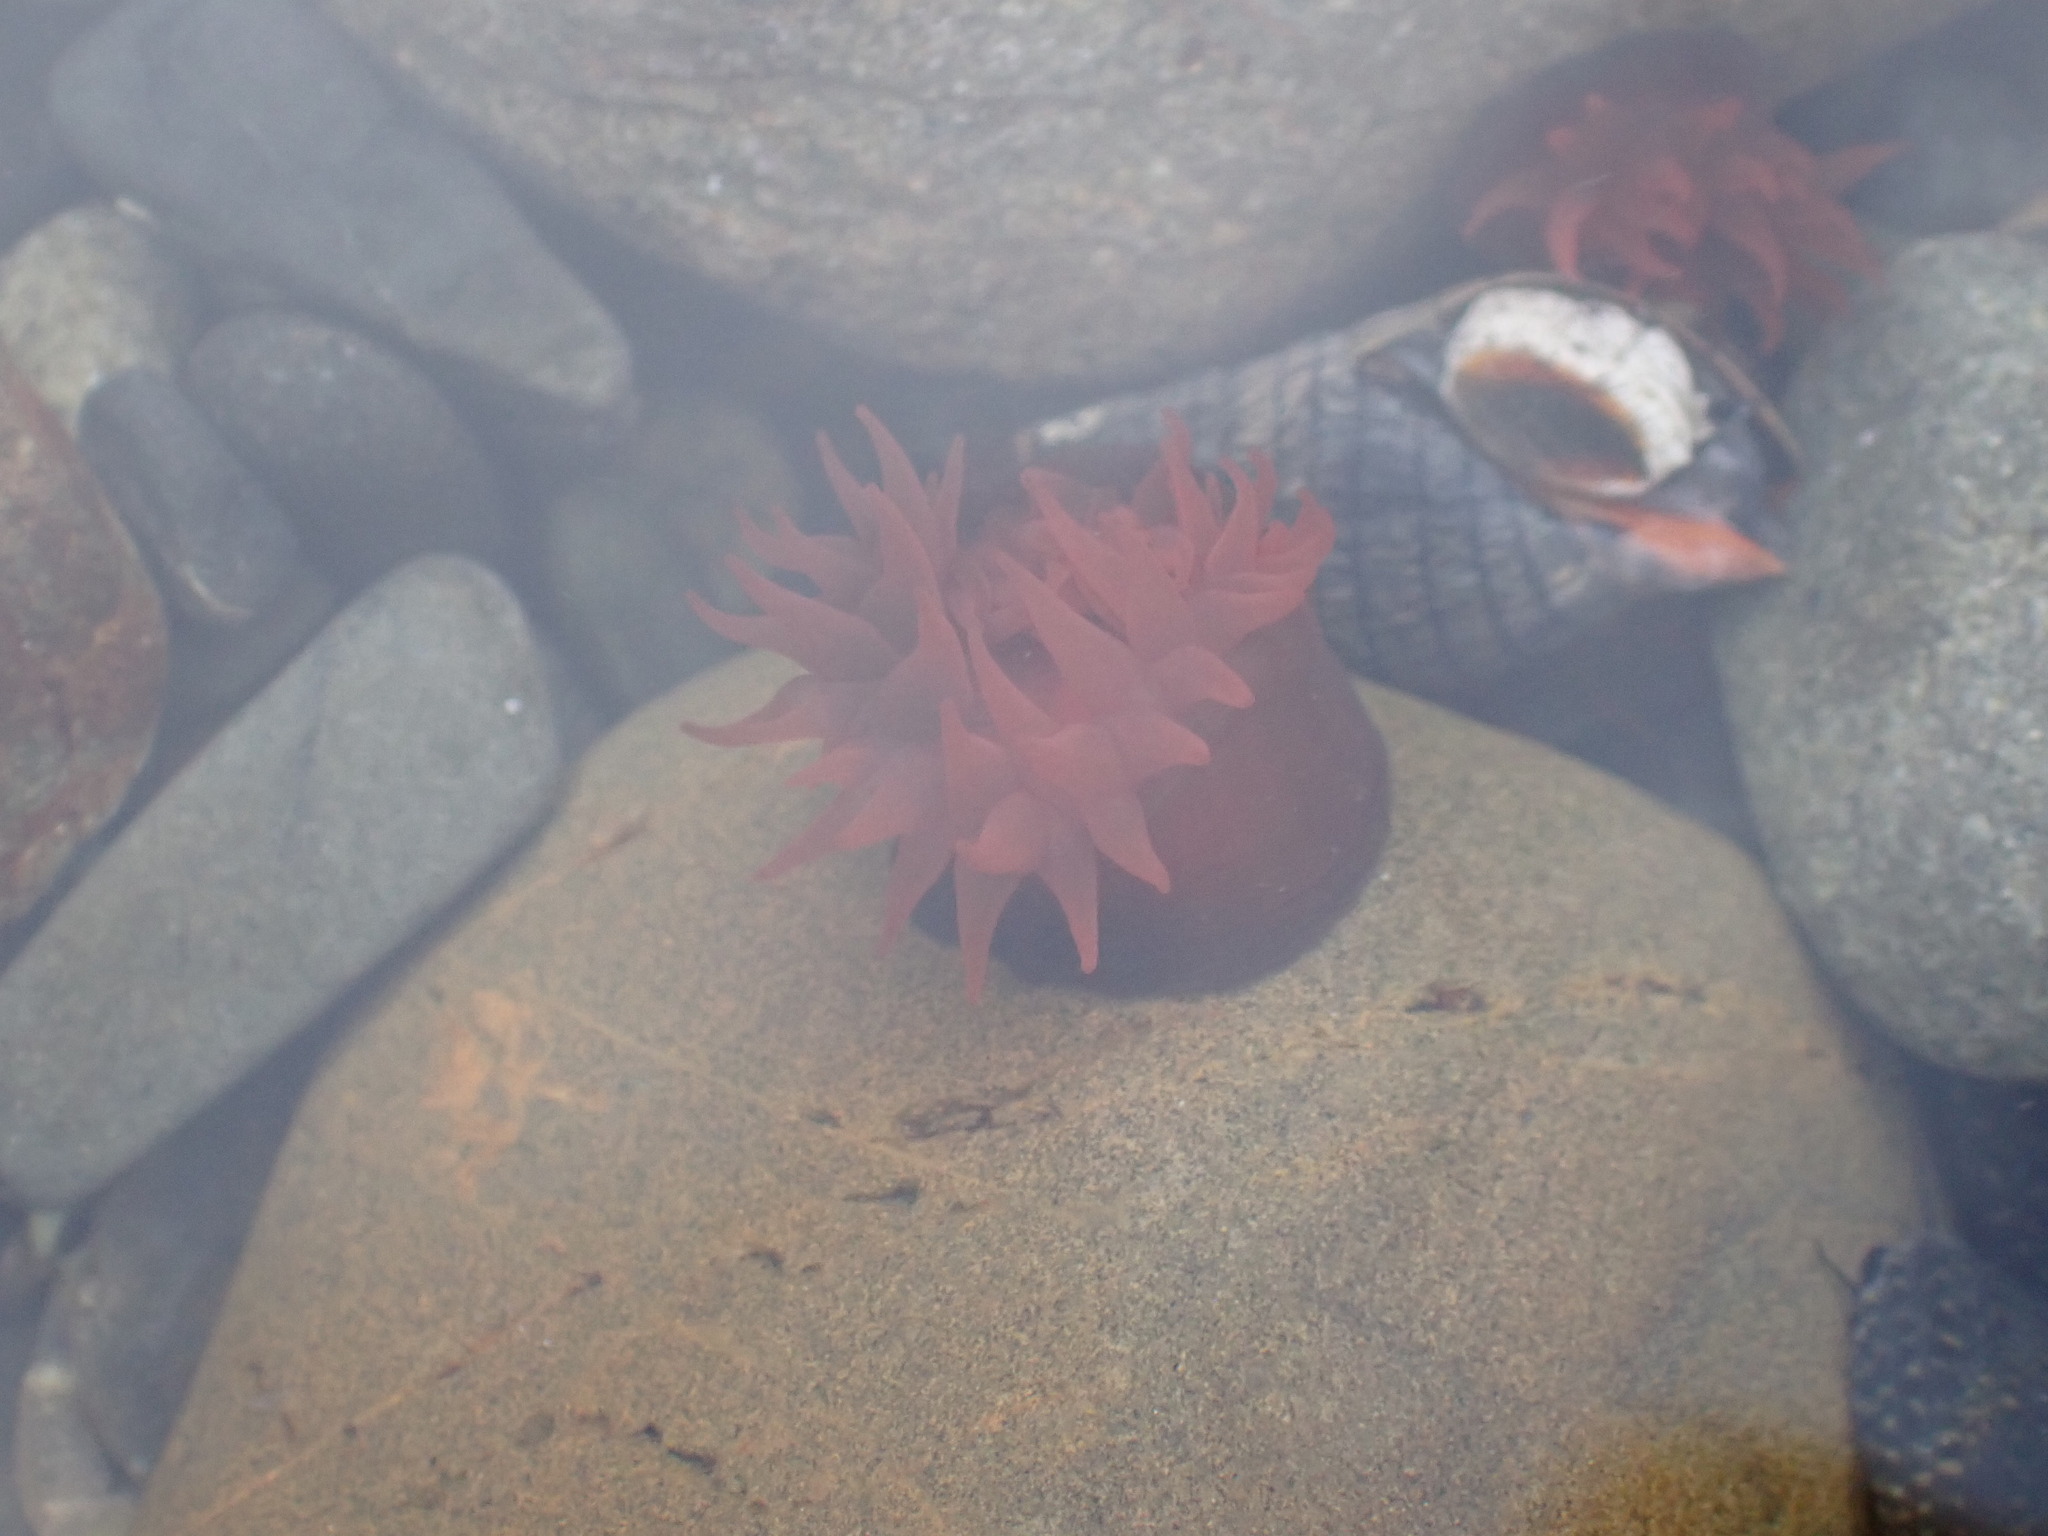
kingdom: Animalia
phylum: Cnidaria
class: Anthozoa
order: Actiniaria
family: Actiniidae
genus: Actinia
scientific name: Actinia tenebrosa
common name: Waratah anemone
